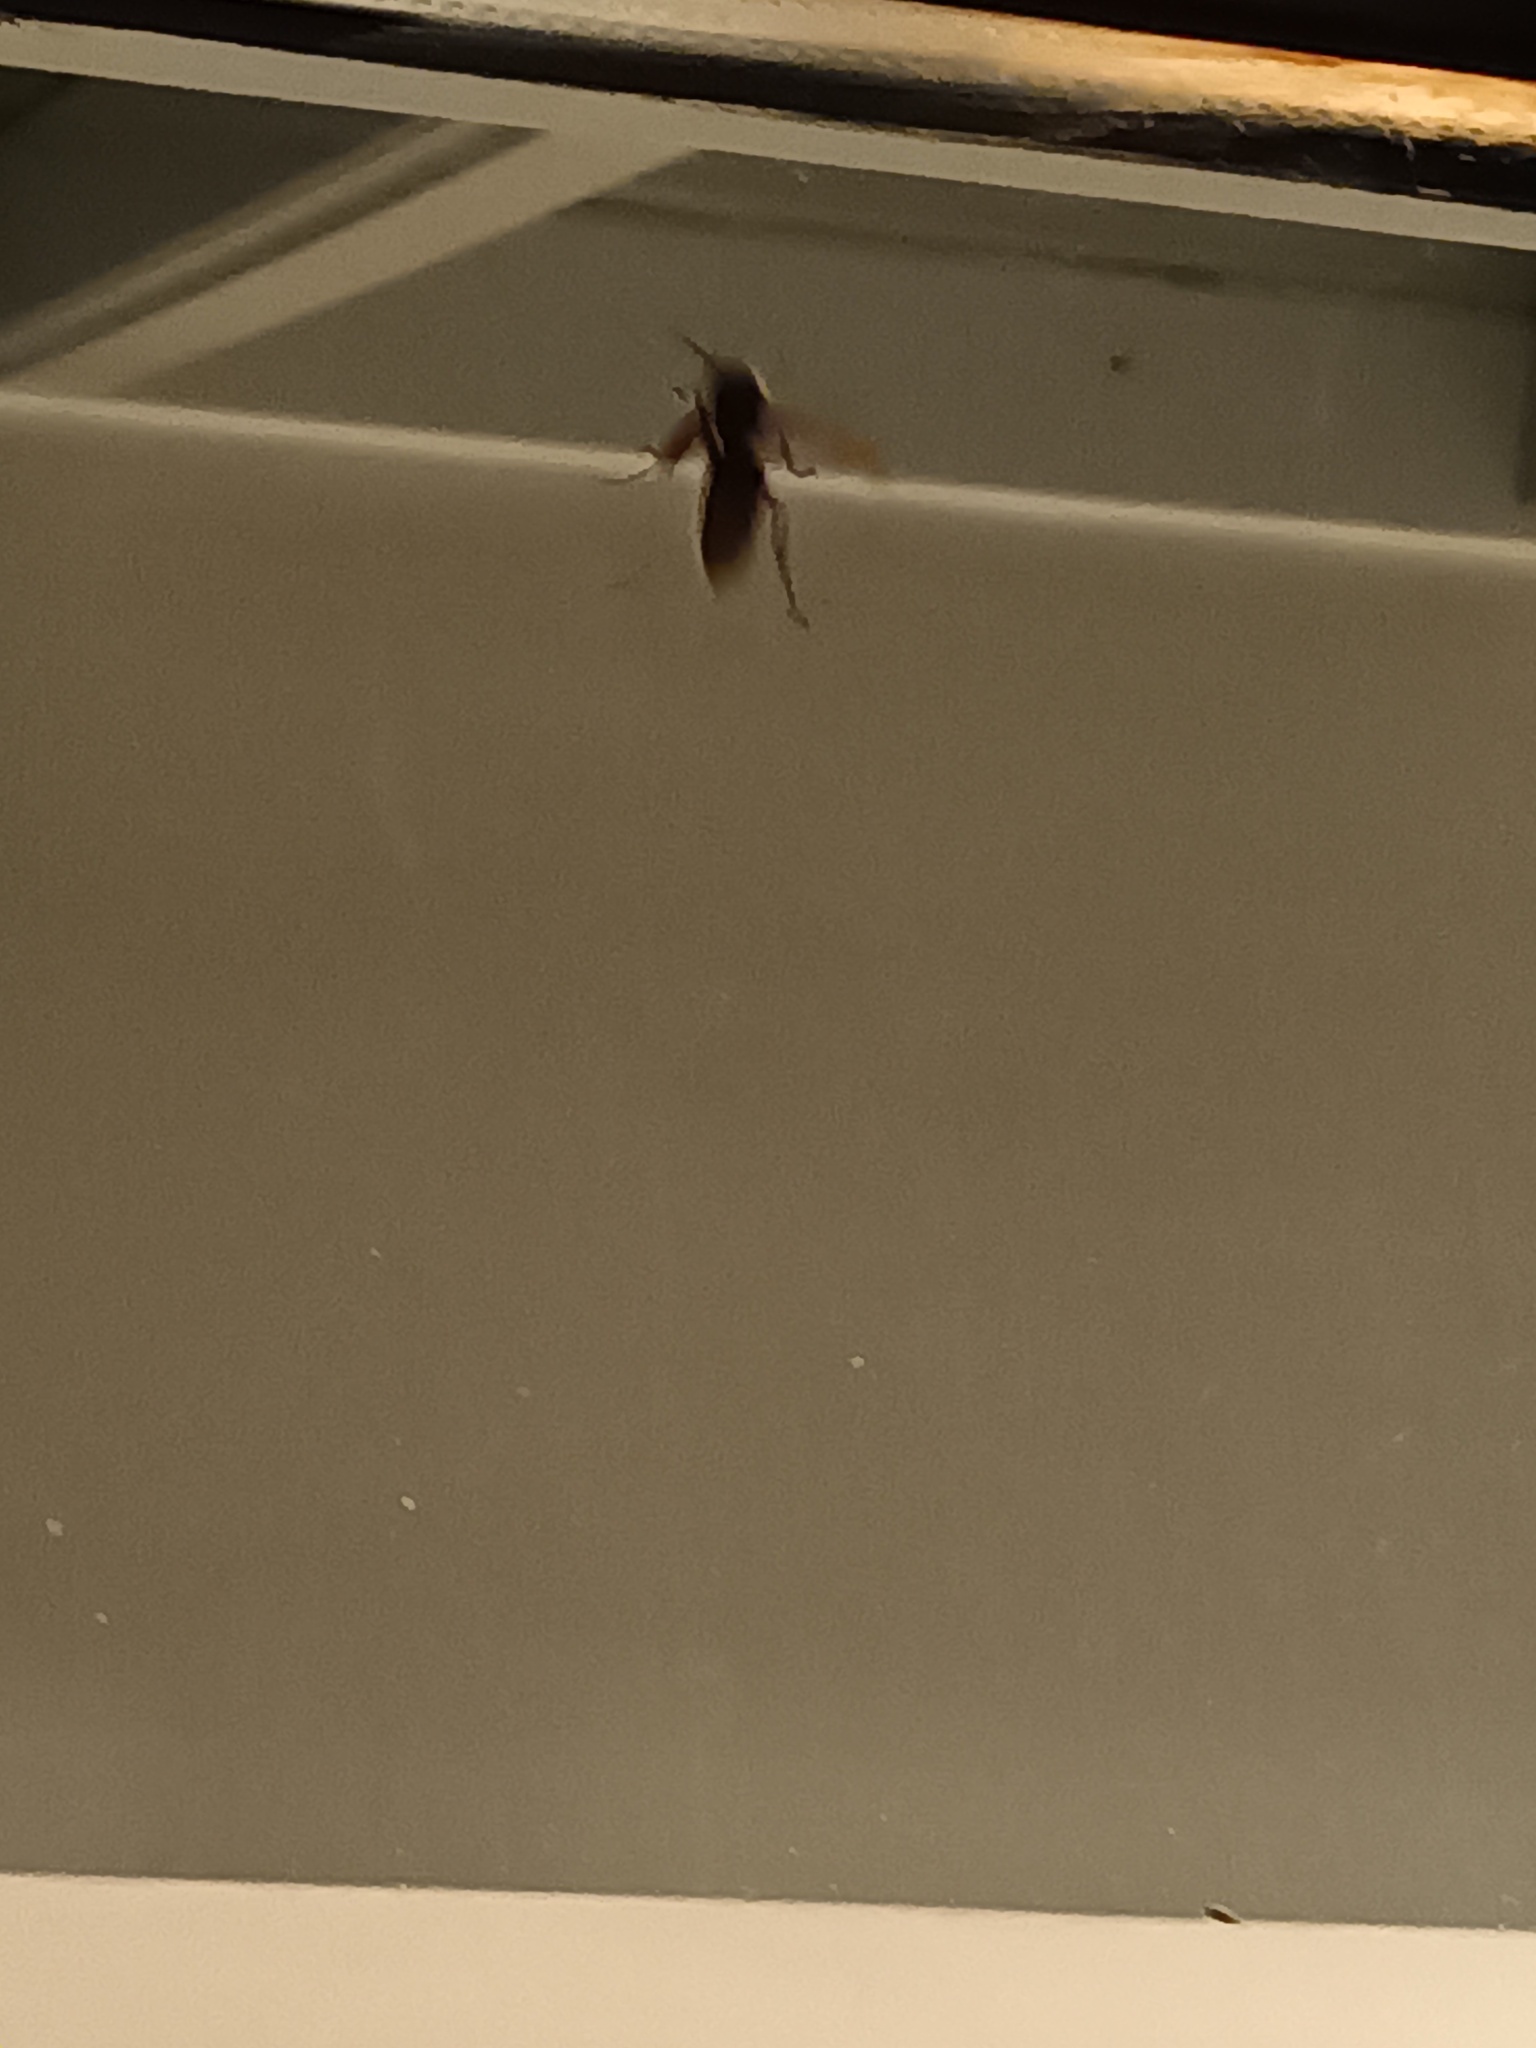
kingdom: Animalia
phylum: Arthropoda
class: Insecta
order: Hymenoptera
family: Vespidae
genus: Vespa
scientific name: Vespa crabro
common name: Hornet
